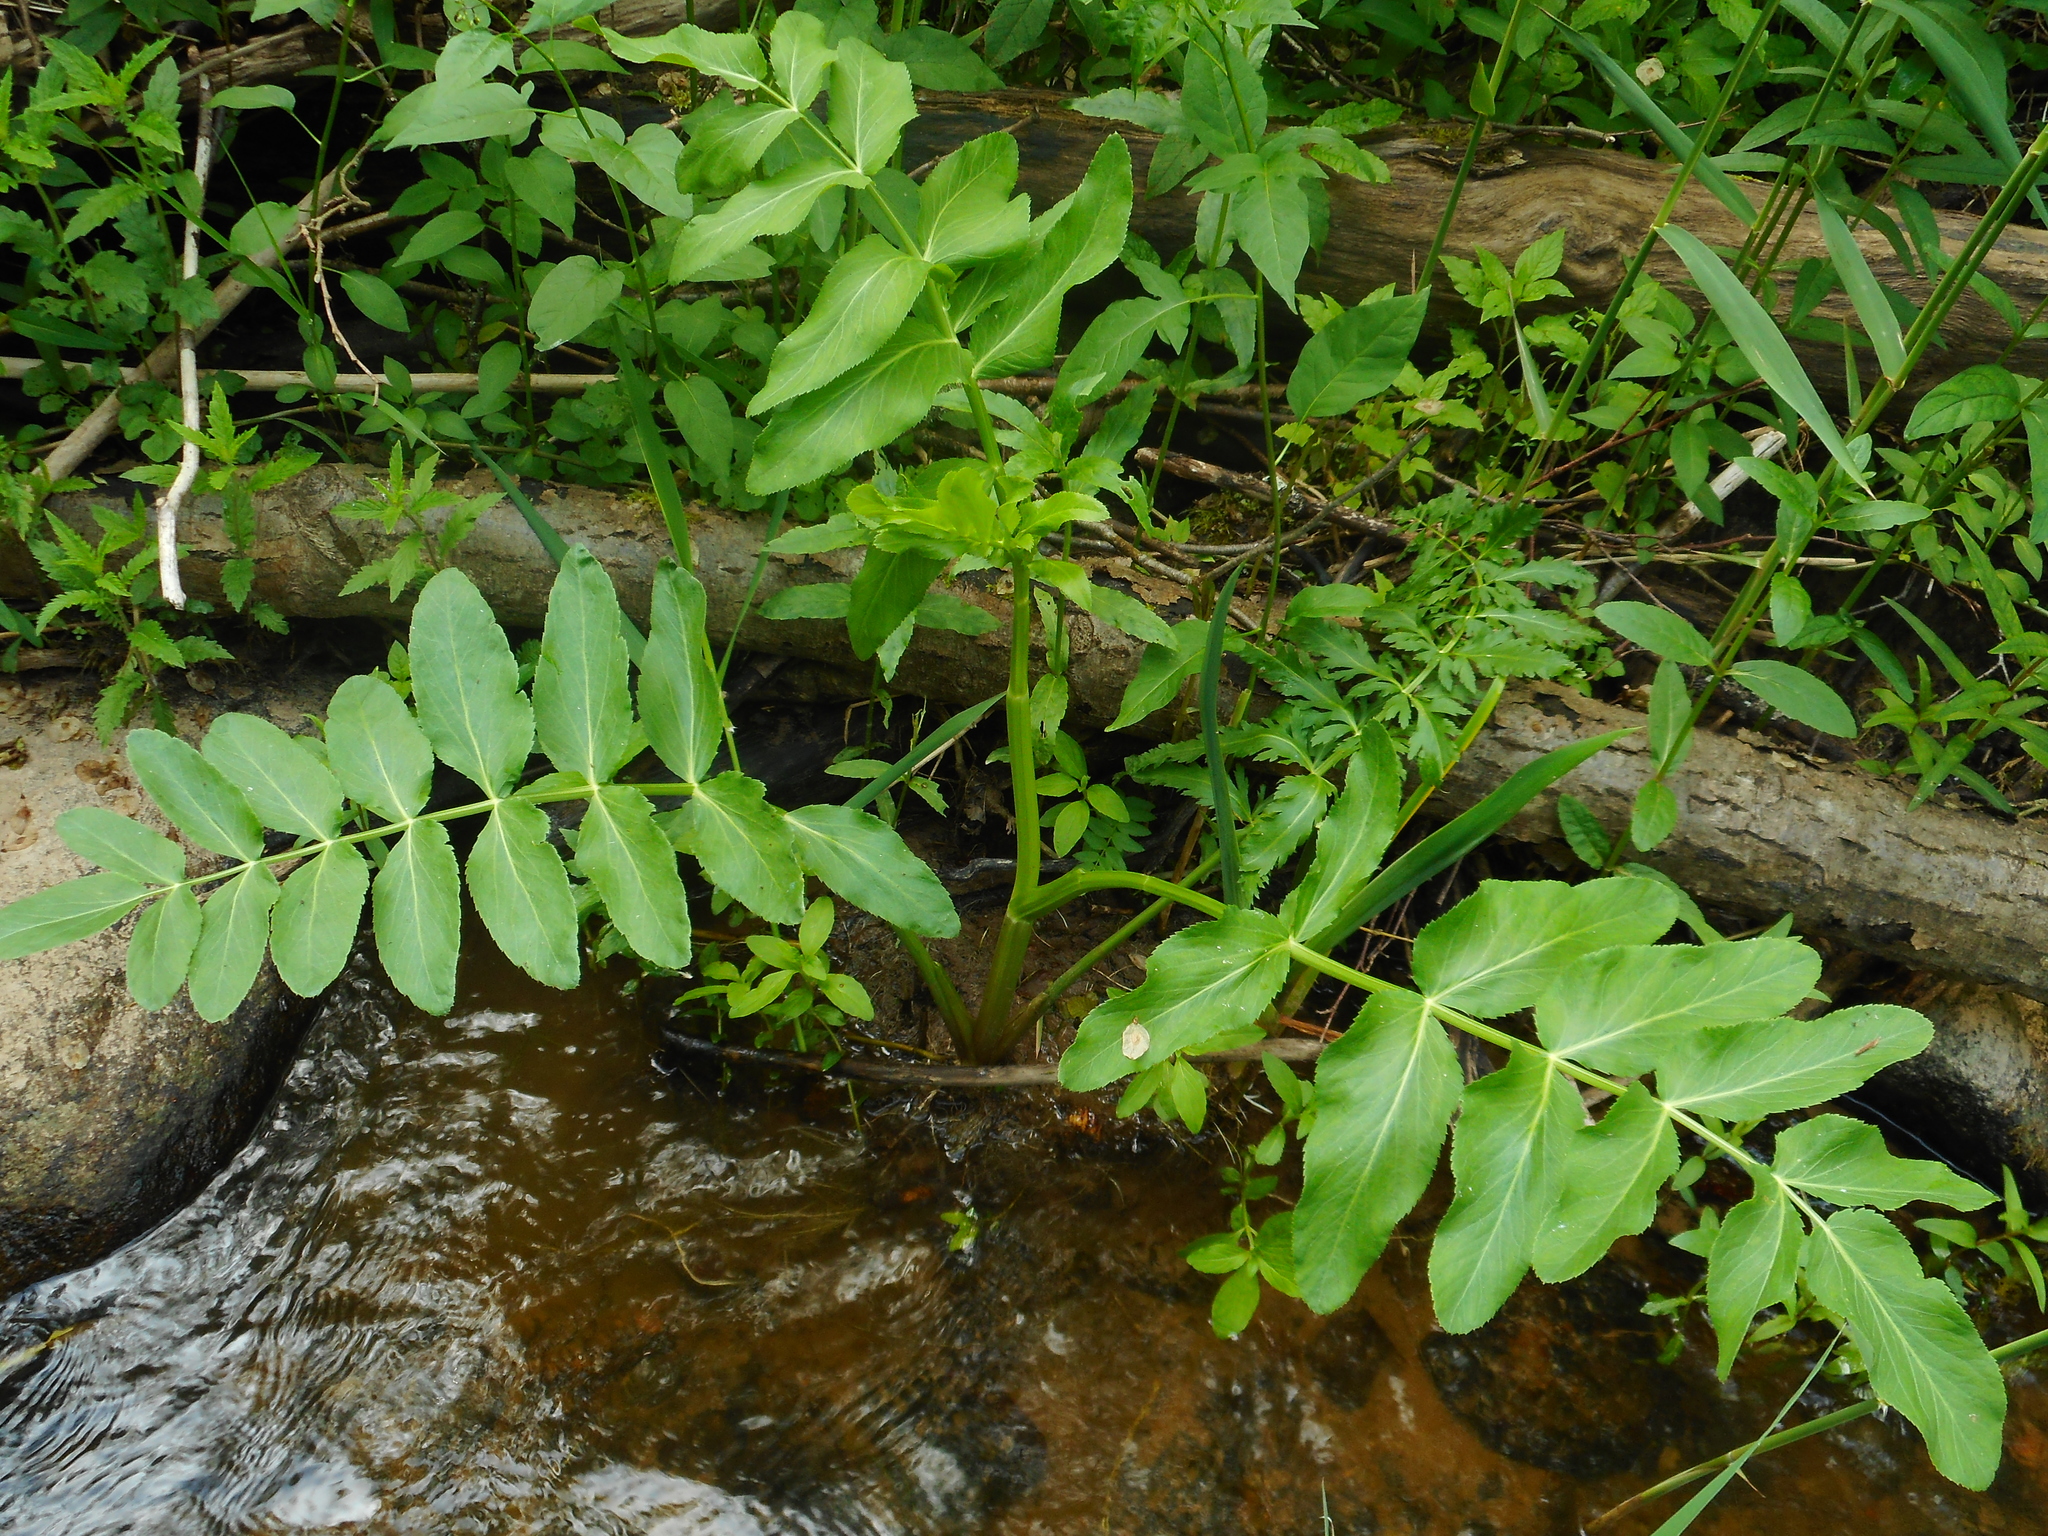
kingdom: Plantae
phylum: Tracheophyta
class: Magnoliopsida
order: Apiales
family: Apiaceae
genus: Sium
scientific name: Sium latifolium
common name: Greater water-parsnip
